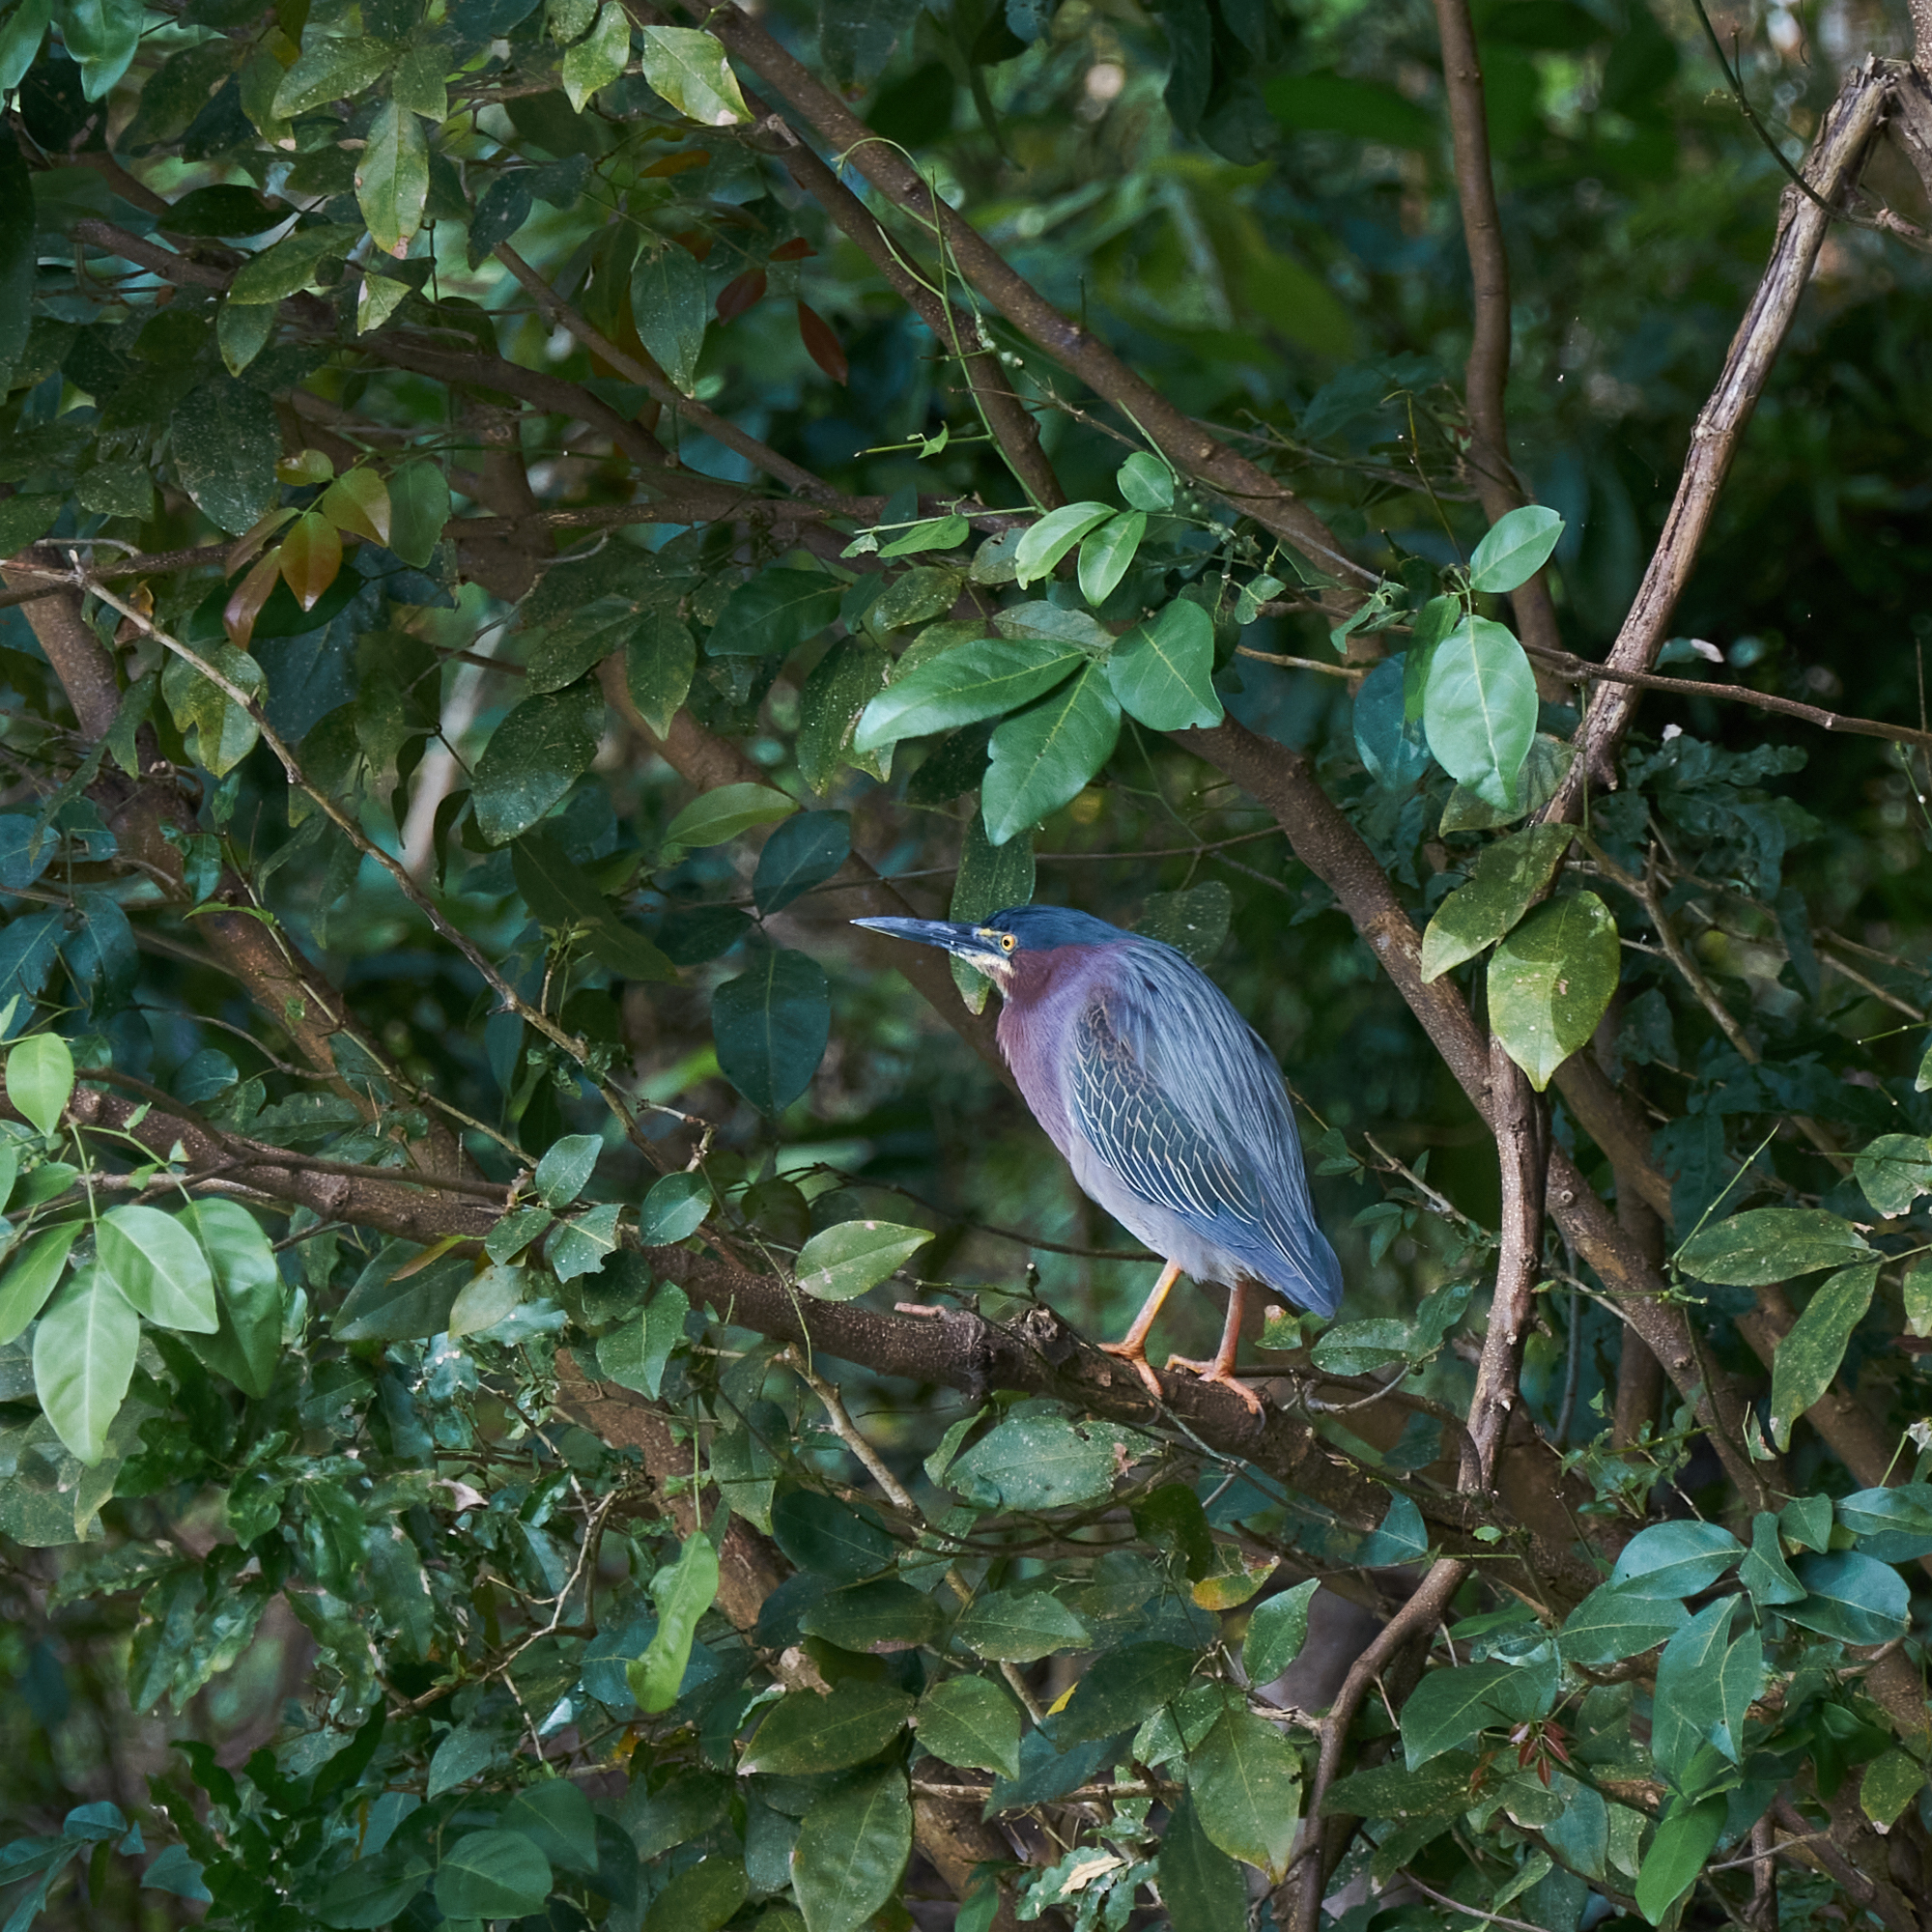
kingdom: Animalia
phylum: Chordata
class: Aves
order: Pelecaniformes
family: Ardeidae
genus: Butorides
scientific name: Butorides virescens
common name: Green heron
